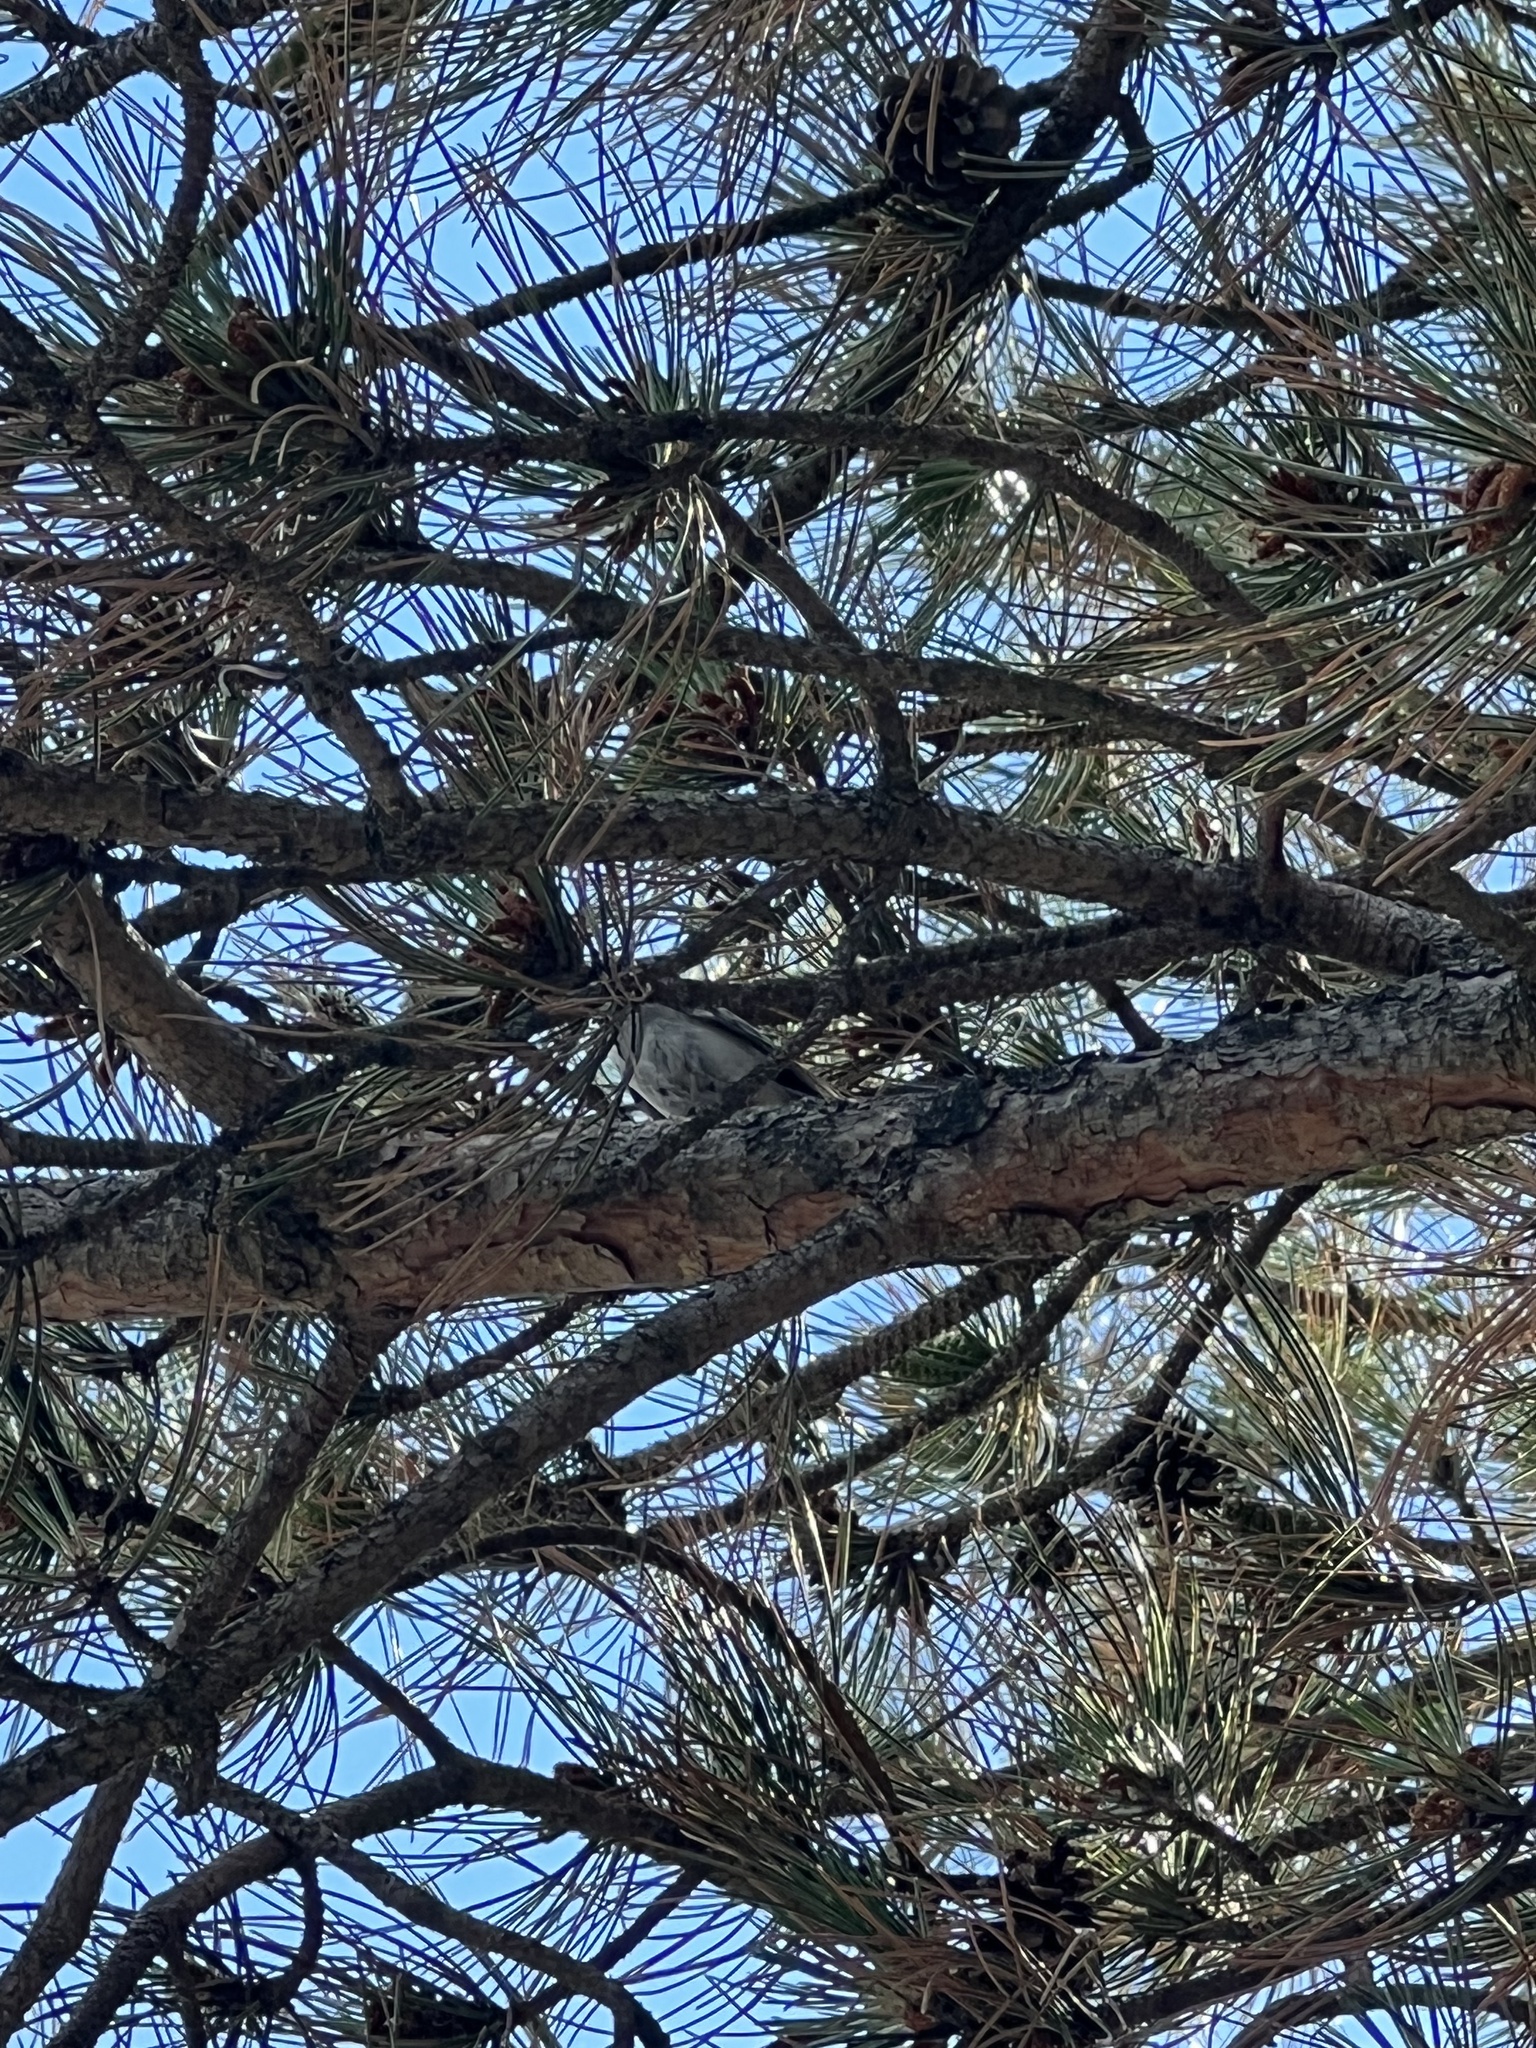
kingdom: Animalia
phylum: Chordata
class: Aves
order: Passeriformes
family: Paridae
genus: Poecile
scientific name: Poecile atricapillus
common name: Black-capped chickadee
